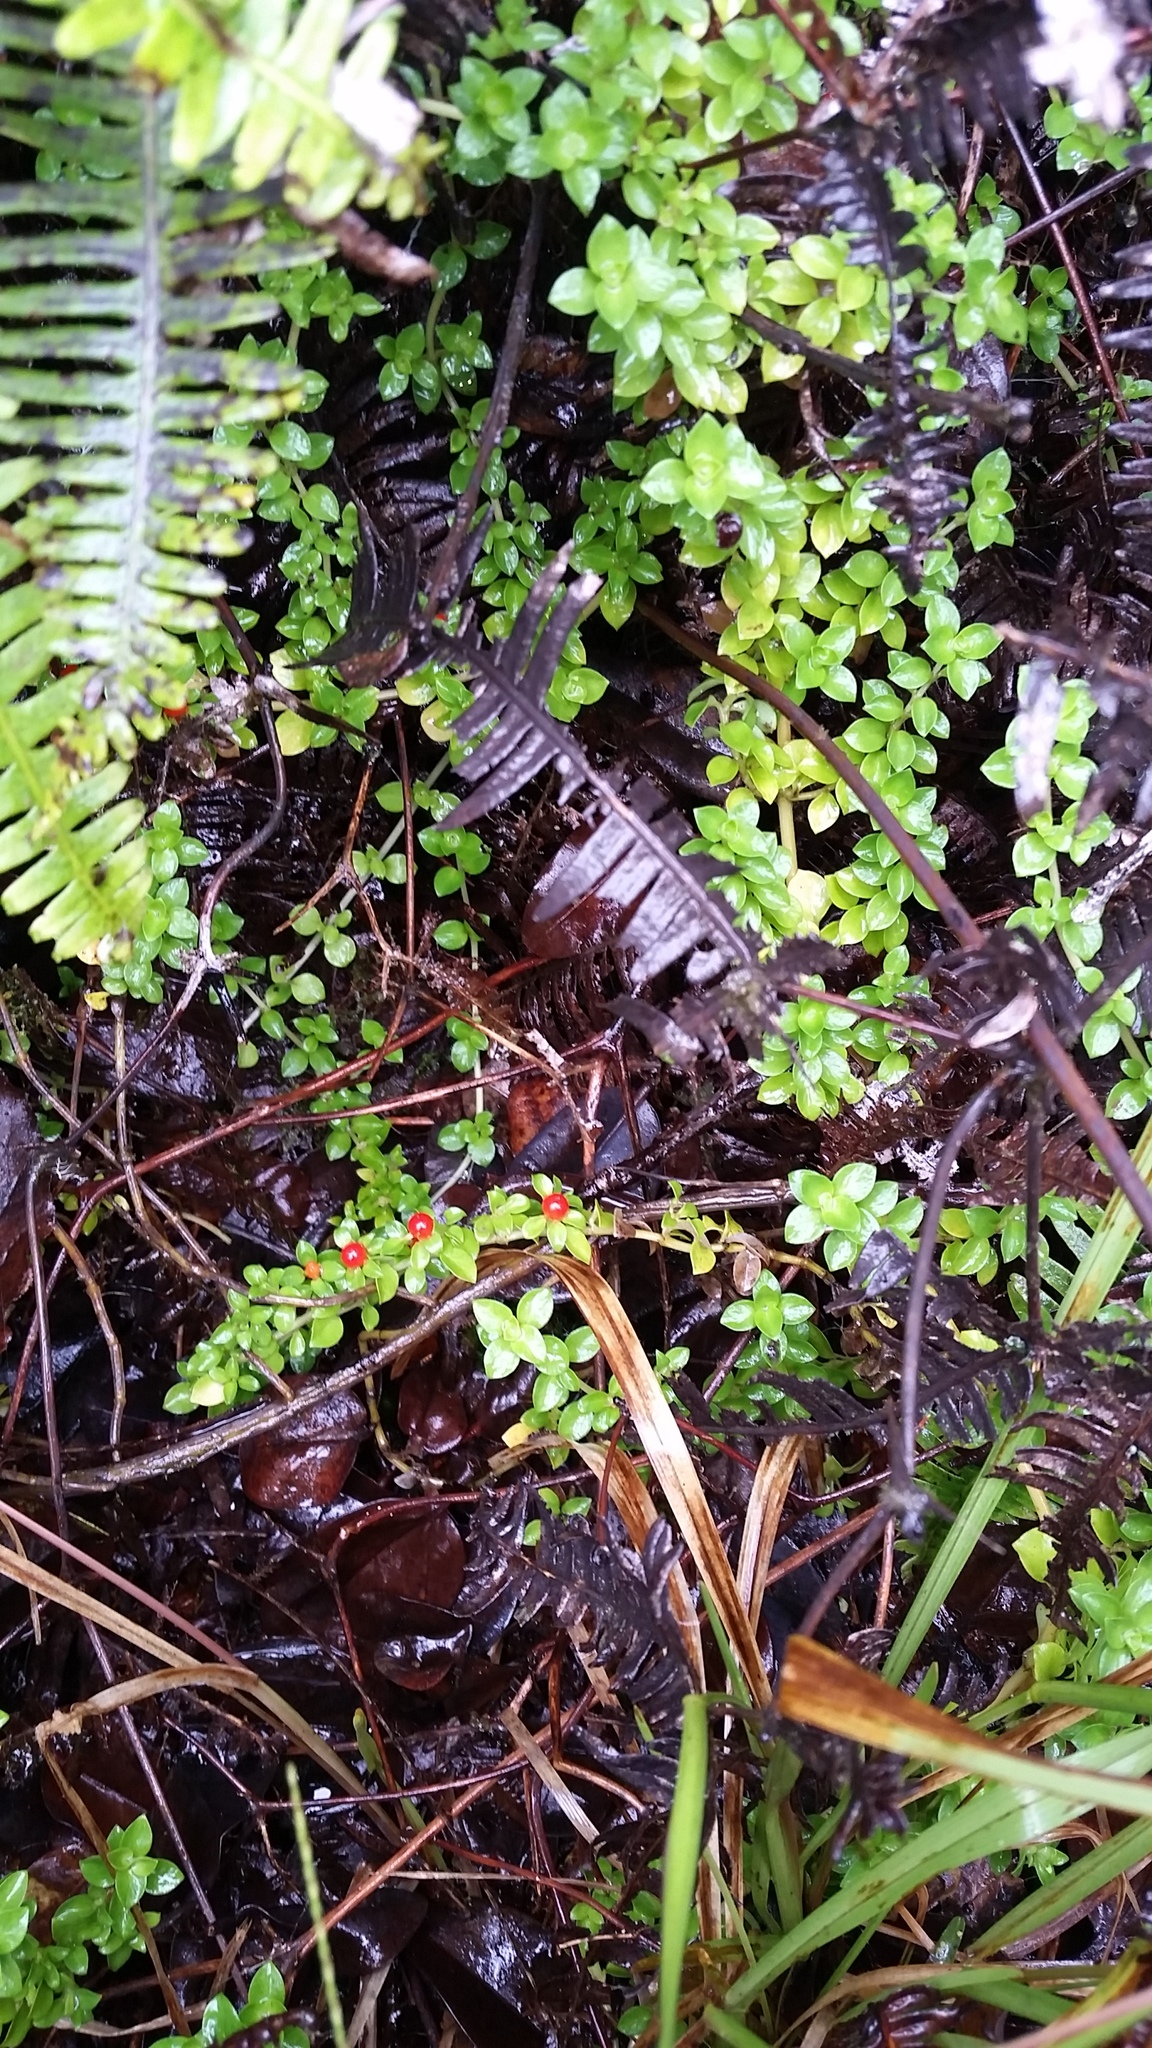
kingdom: Plantae
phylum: Tracheophyta
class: Magnoliopsida
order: Gentianales
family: Rubiaceae
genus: Nertera
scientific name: Nertera granadensis
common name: Beadplant
